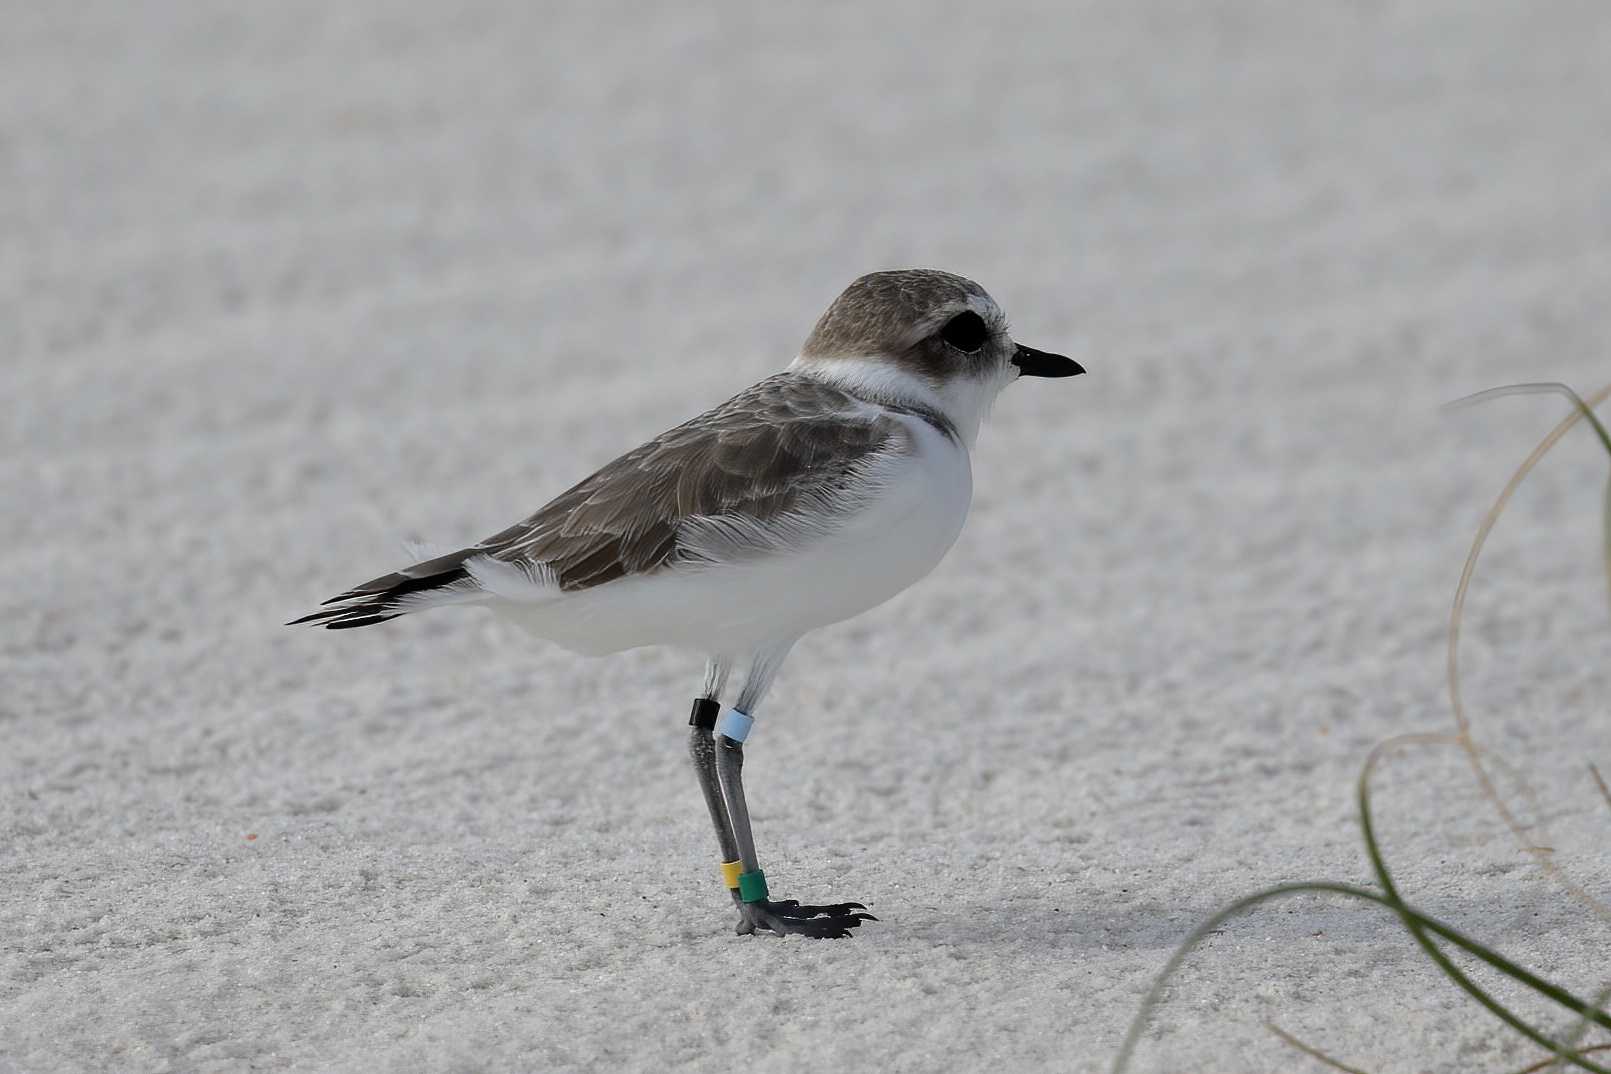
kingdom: Animalia
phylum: Chordata
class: Aves
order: Charadriiformes
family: Charadriidae
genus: Anarhynchus
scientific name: Anarhynchus
